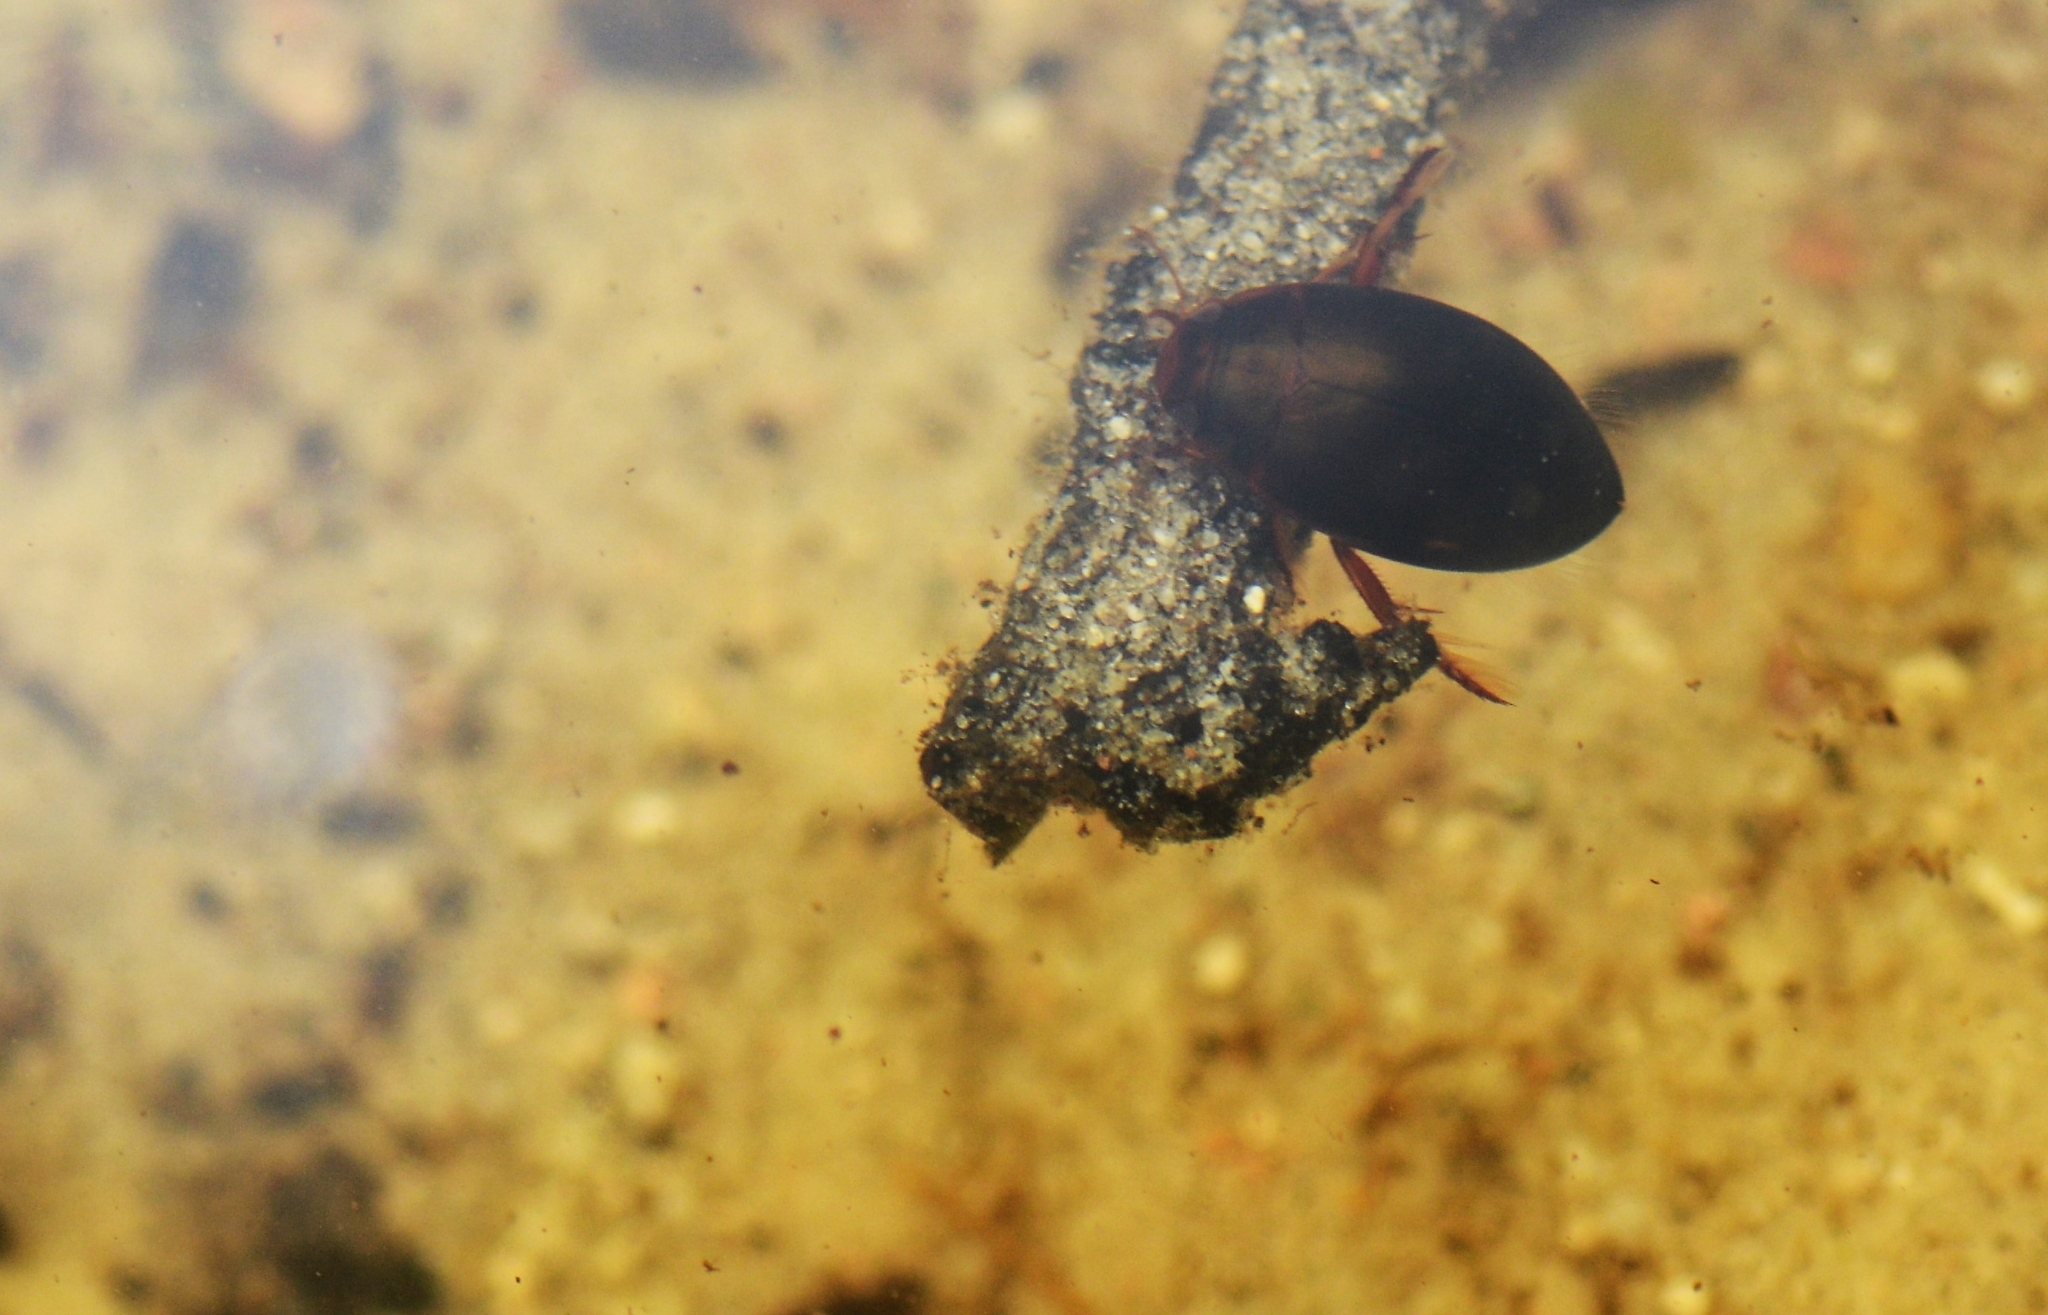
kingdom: Animalia
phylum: Arthropoda
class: Insecta
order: Coleoptera
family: Dytiscidae
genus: Ilybius
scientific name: Ilybius fenestratus
